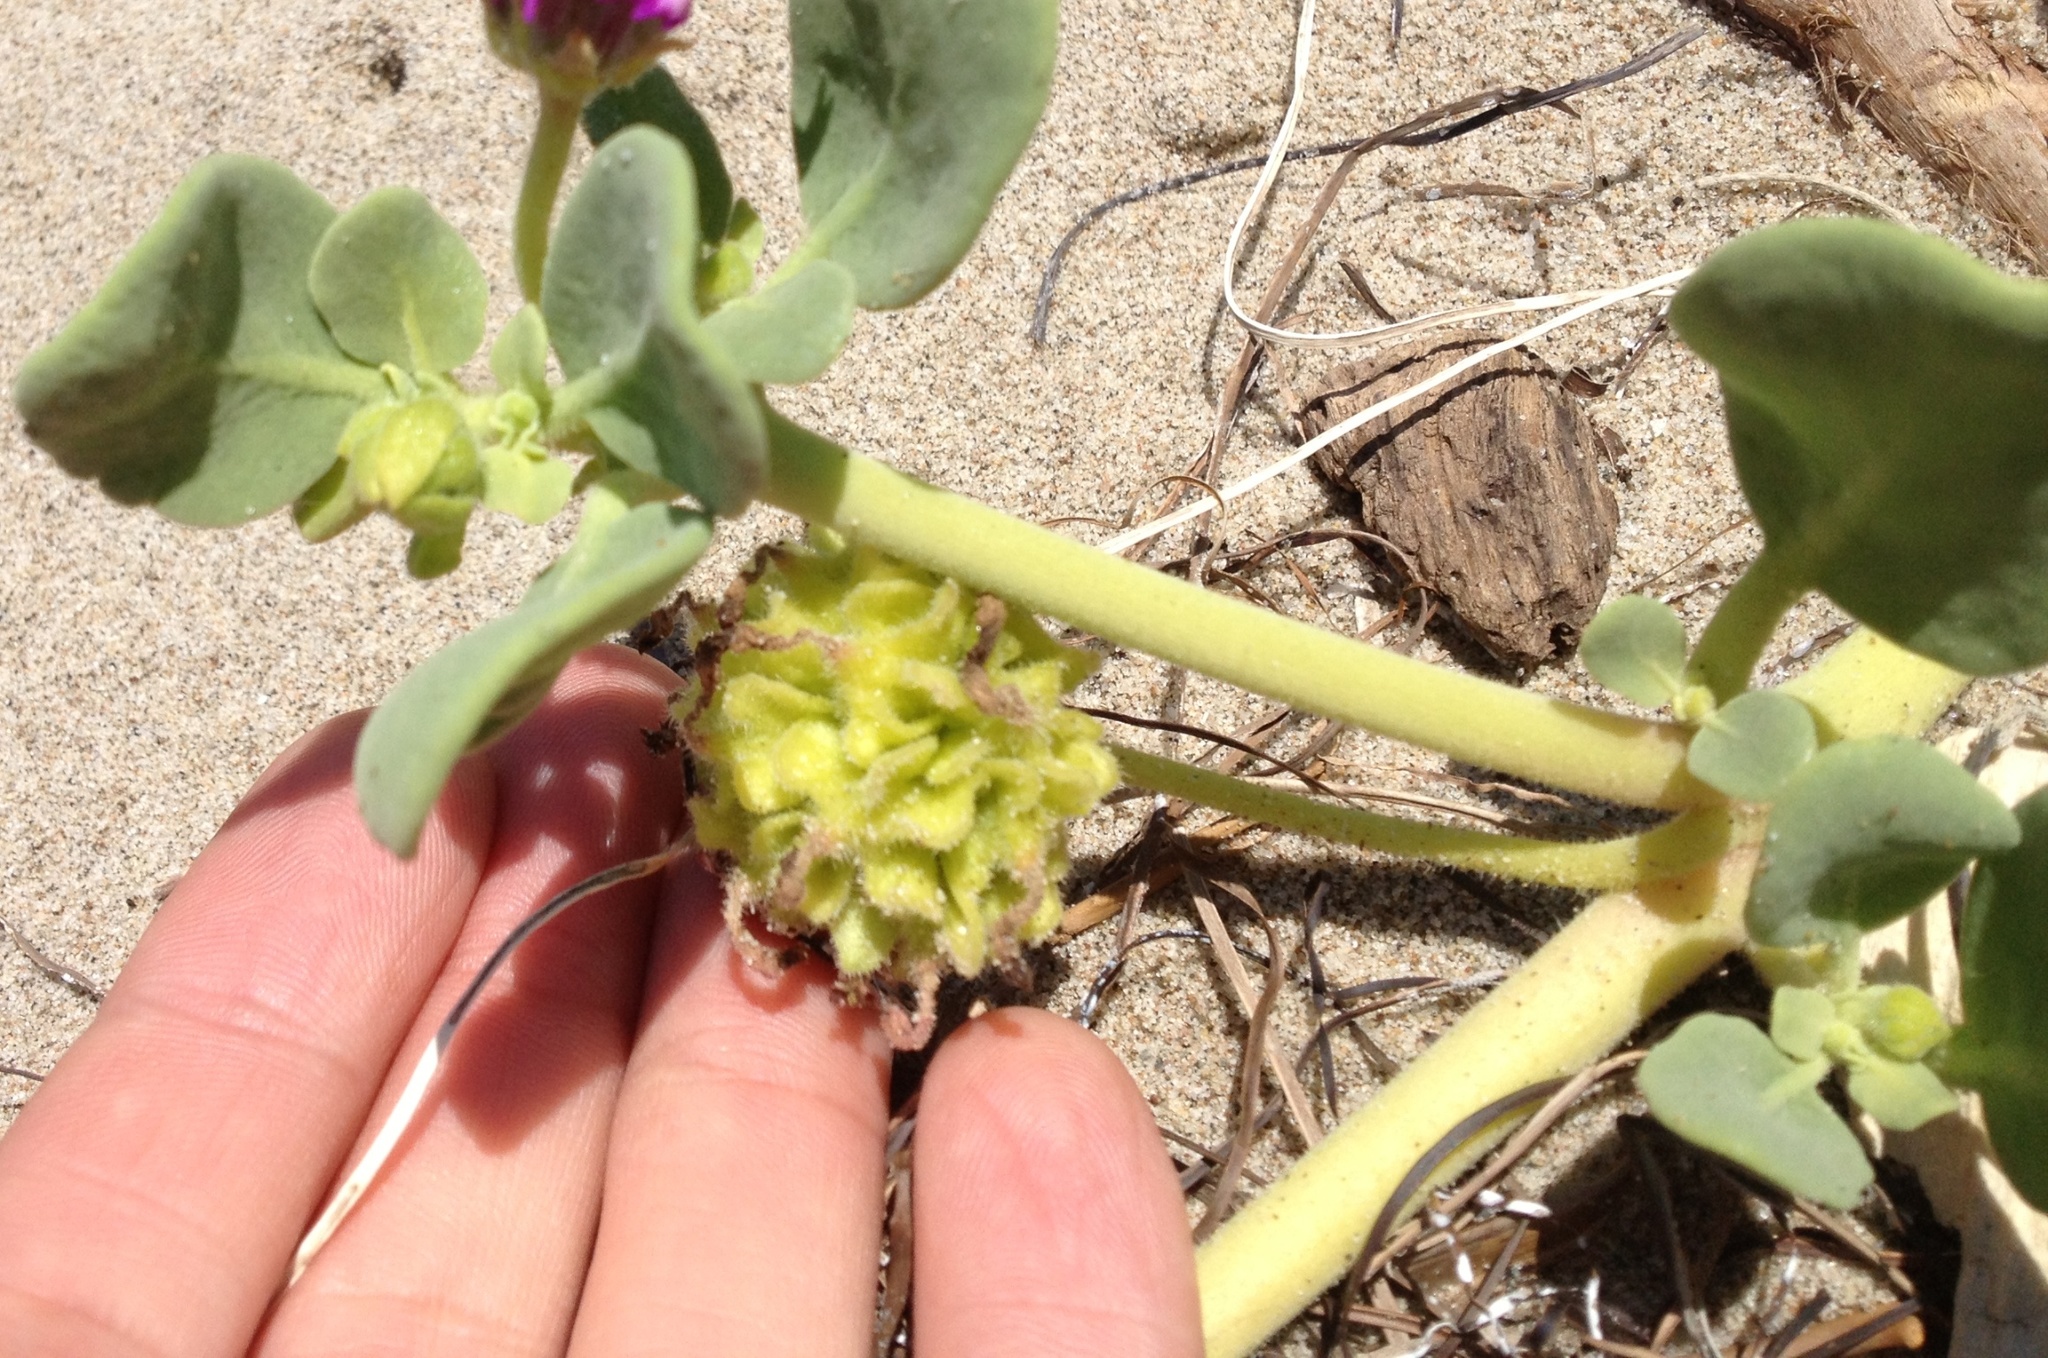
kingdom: Plantae
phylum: Tracheophyta
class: Magnoliopsida
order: Caryophyllales
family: Nyctaginaceae
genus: Abronia
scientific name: Abronia maritima
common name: Red sand-verbena
